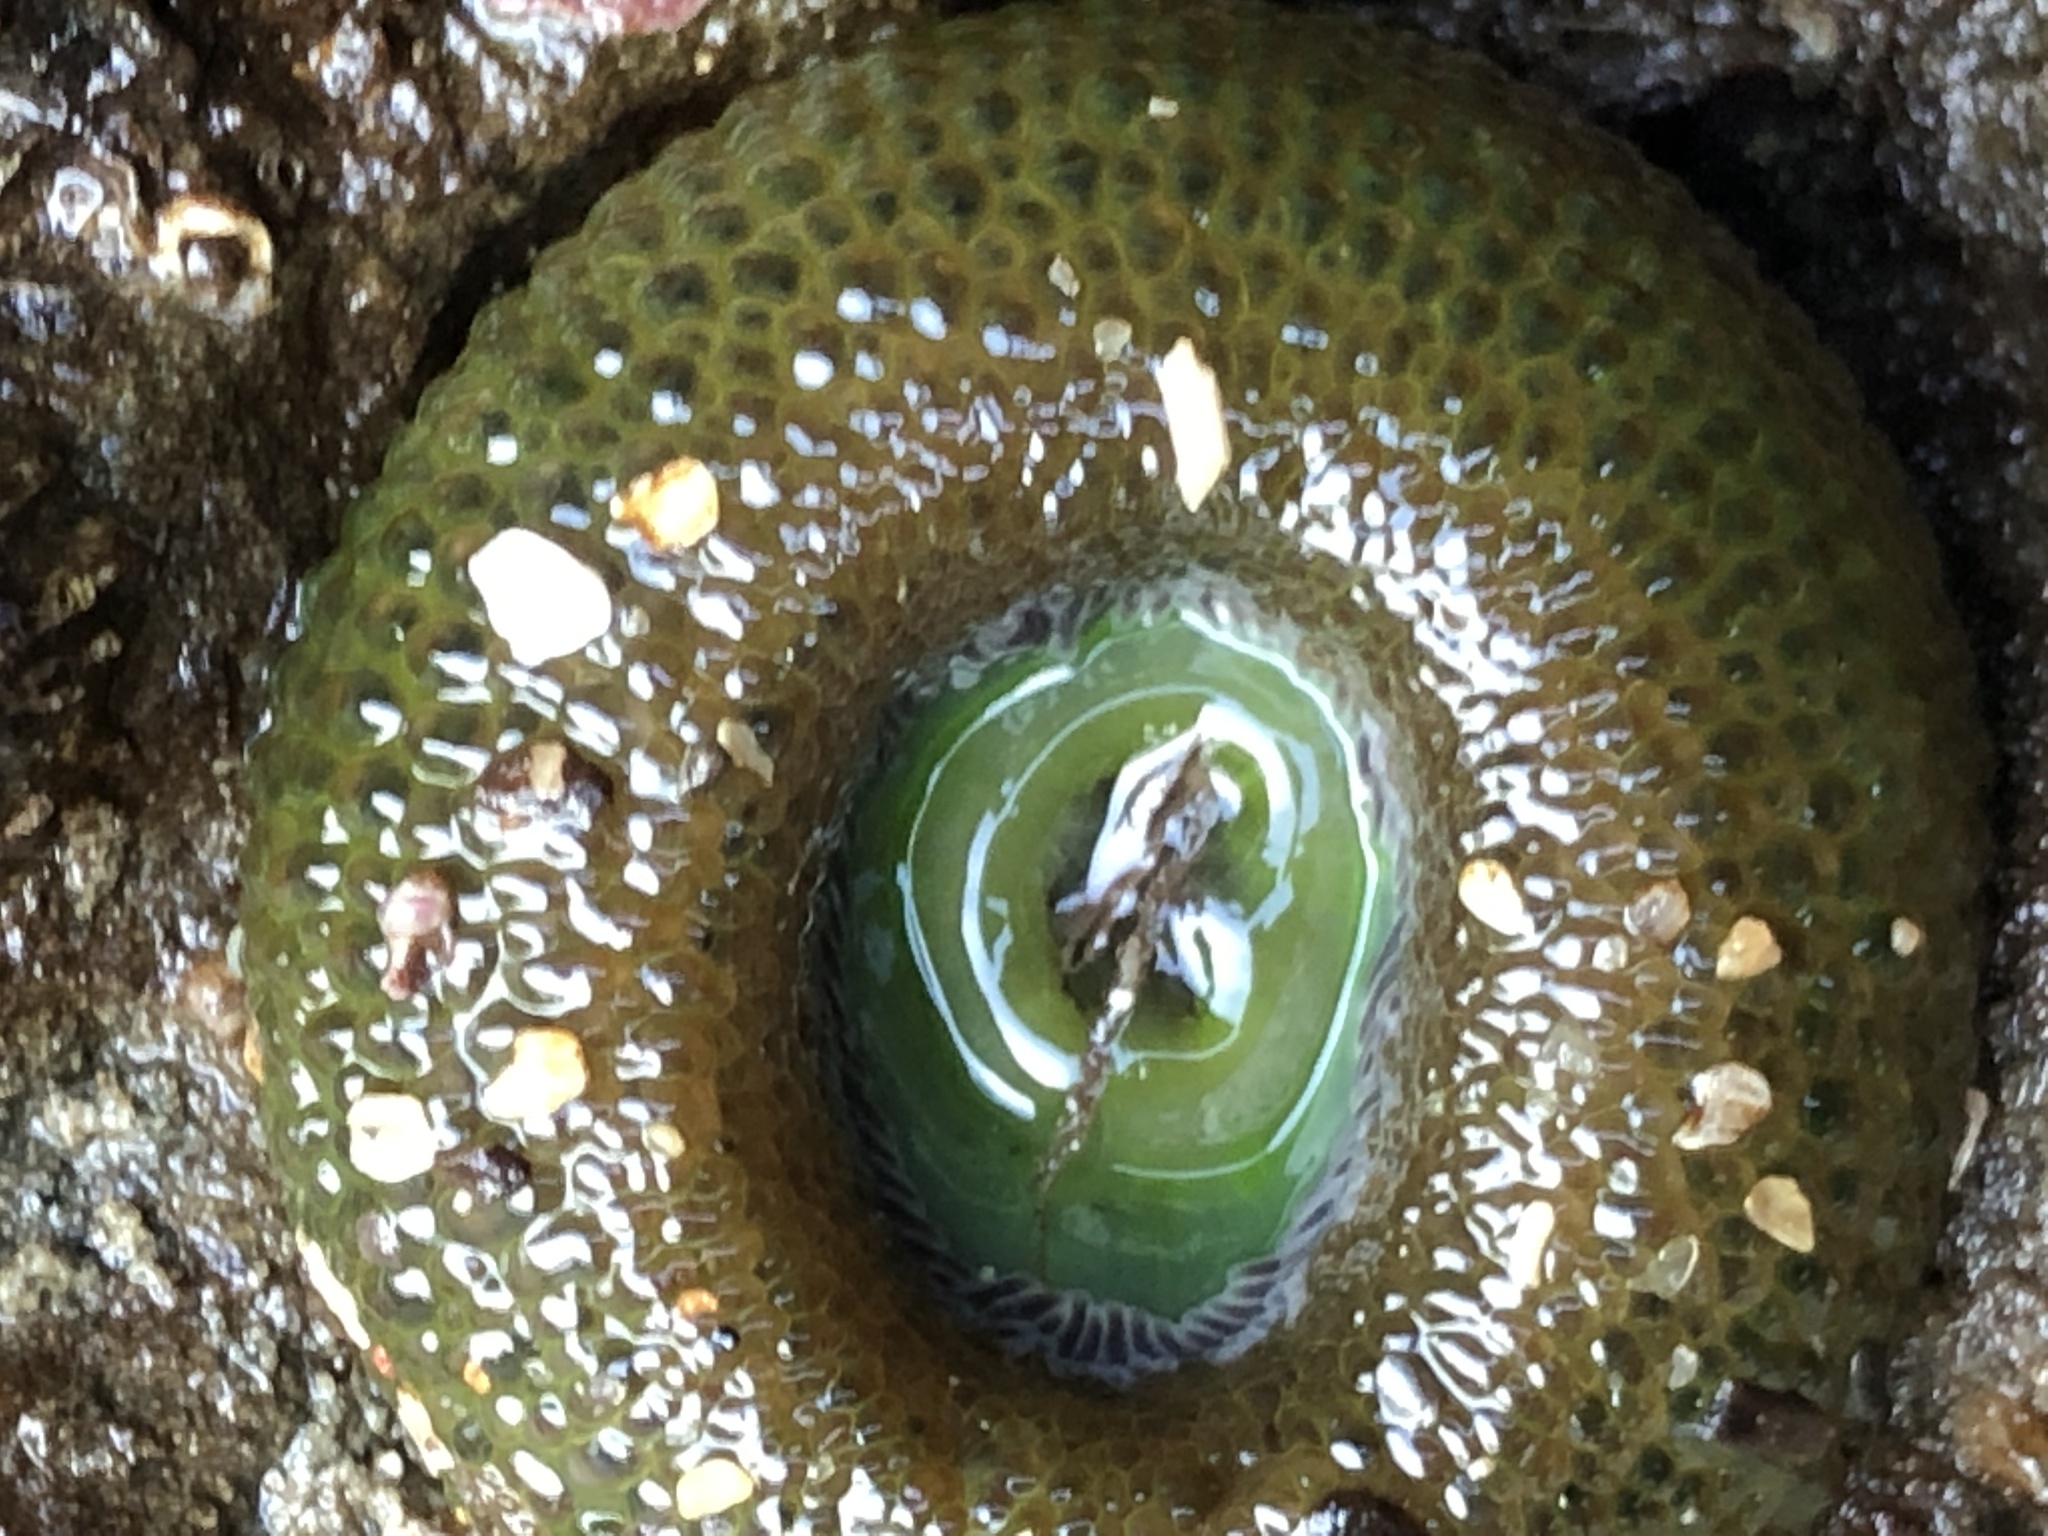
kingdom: Animalia
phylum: Cnidaria
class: Anthozoa
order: Actiniaria
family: Actiniidae
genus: Anthopleura
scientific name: Anthopleura xanthogrammica
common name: Giant green anemone
